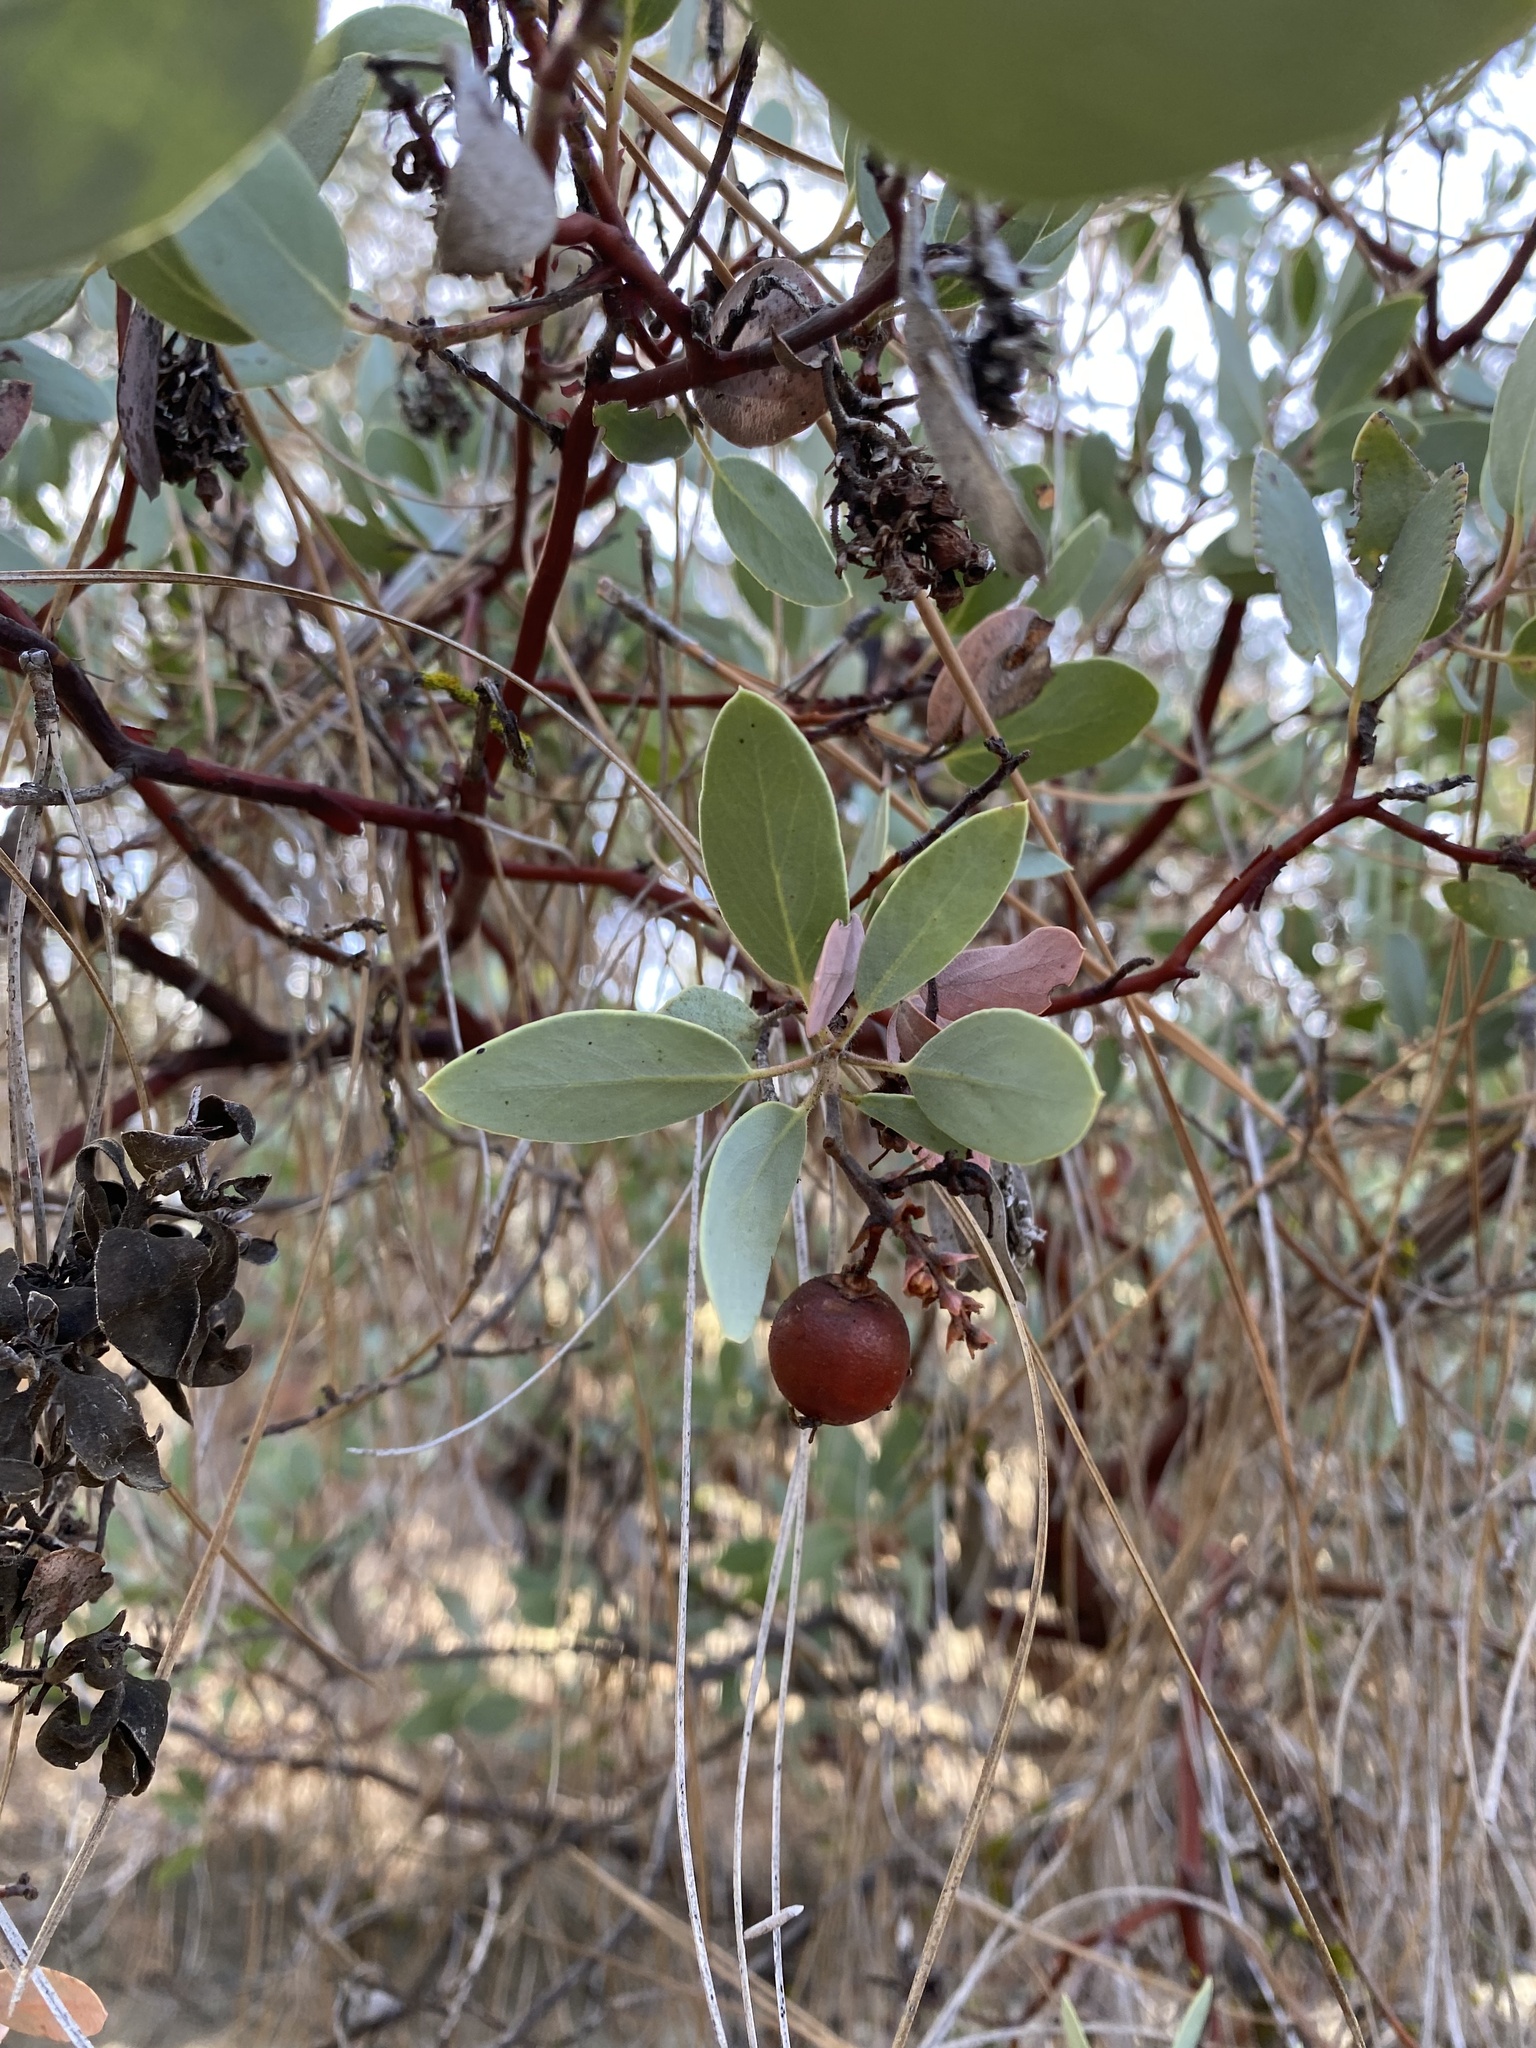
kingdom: Plantae
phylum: Tracheophyta
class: Magnoliopsida
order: Ericales
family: Ericaceae
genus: Arctostaphylos
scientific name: Arctostaphylos glauca
